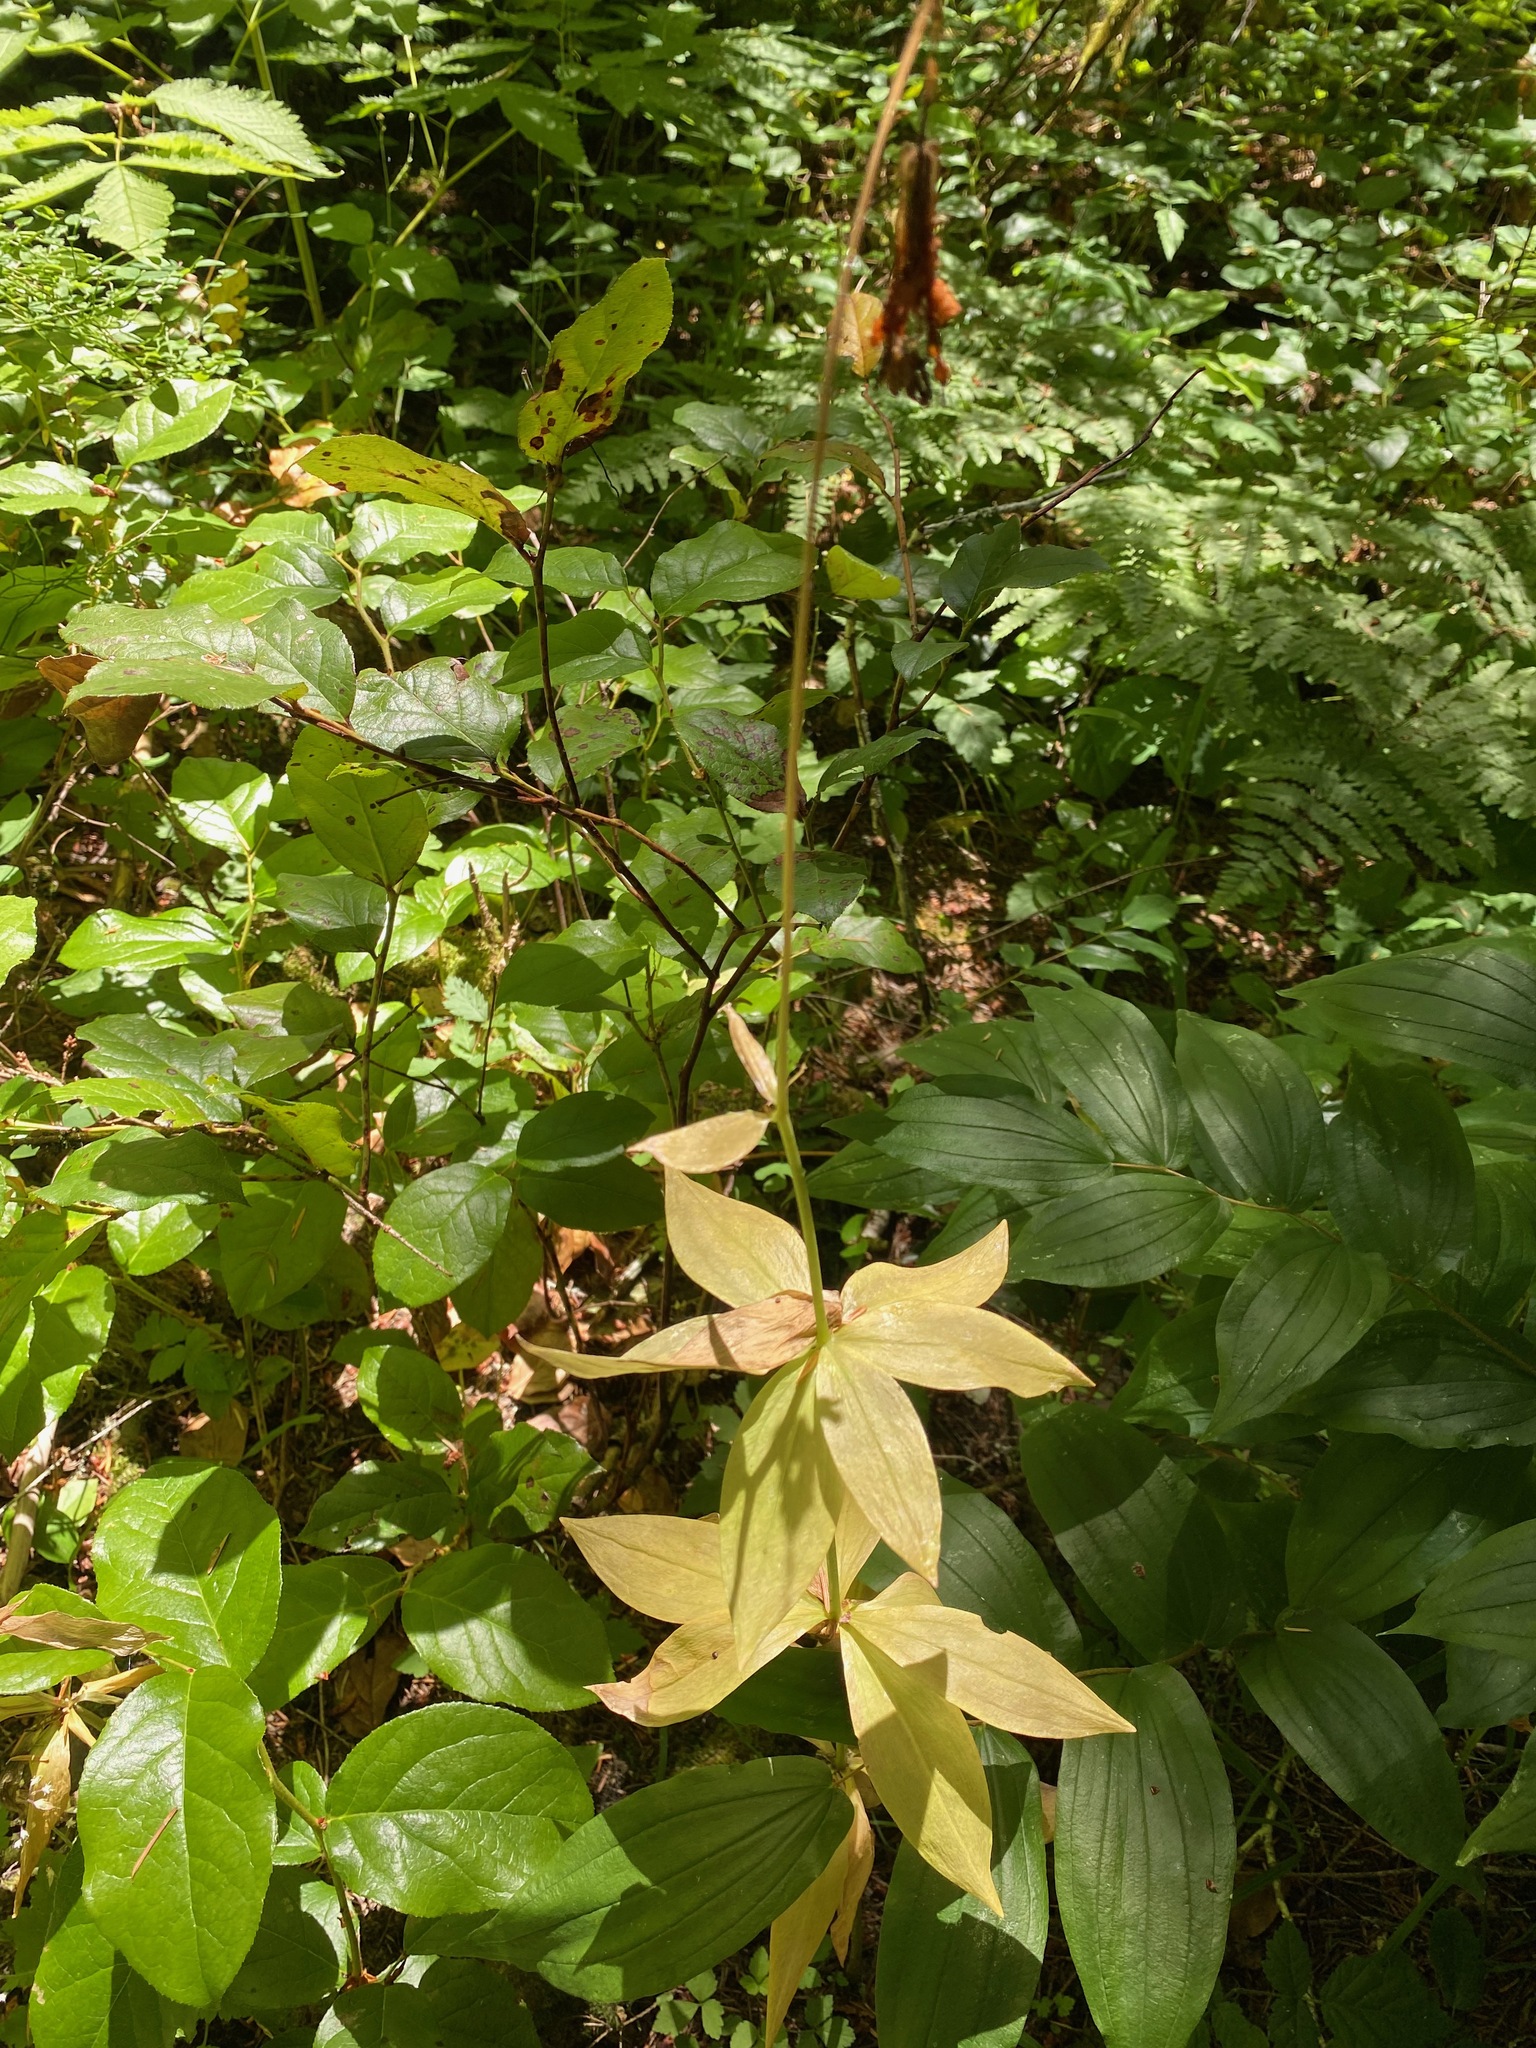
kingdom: Plantae
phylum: Tracheophyta
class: Liliopsida
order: Liliales
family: Liliaceae
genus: Lilium
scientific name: Lilium columbianum
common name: Columbia lily
